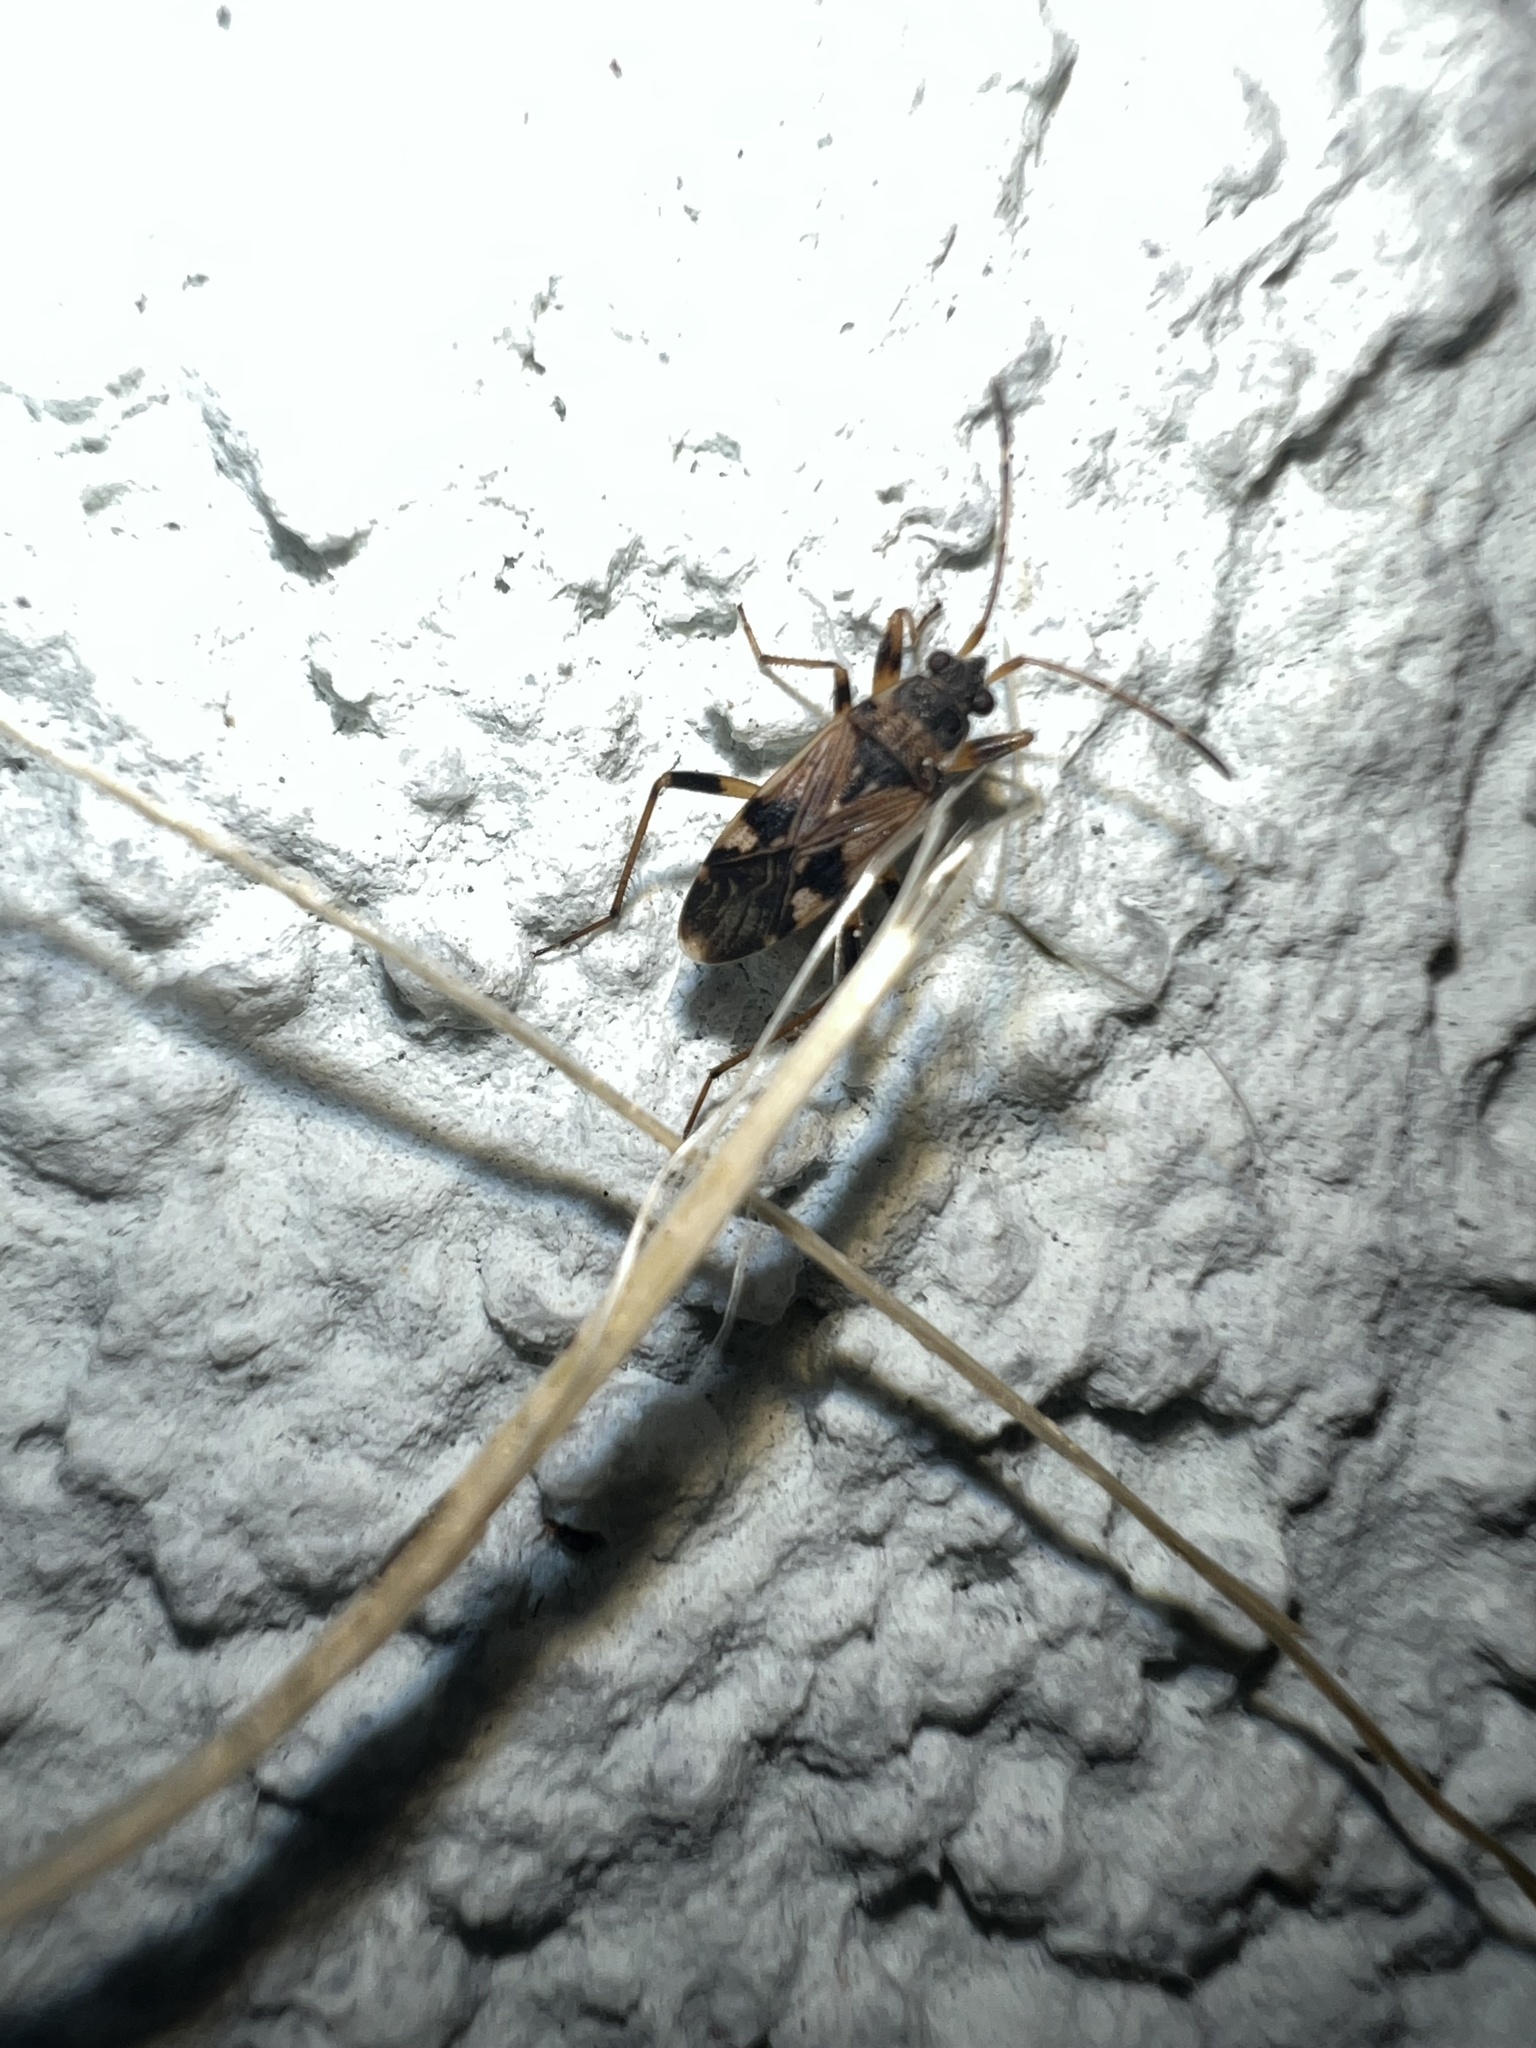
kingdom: Animalia
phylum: Arthropoda
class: Insecta
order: Hemiptera
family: Rhyparochromidae
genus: Beosus
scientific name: Beosus maritimus
